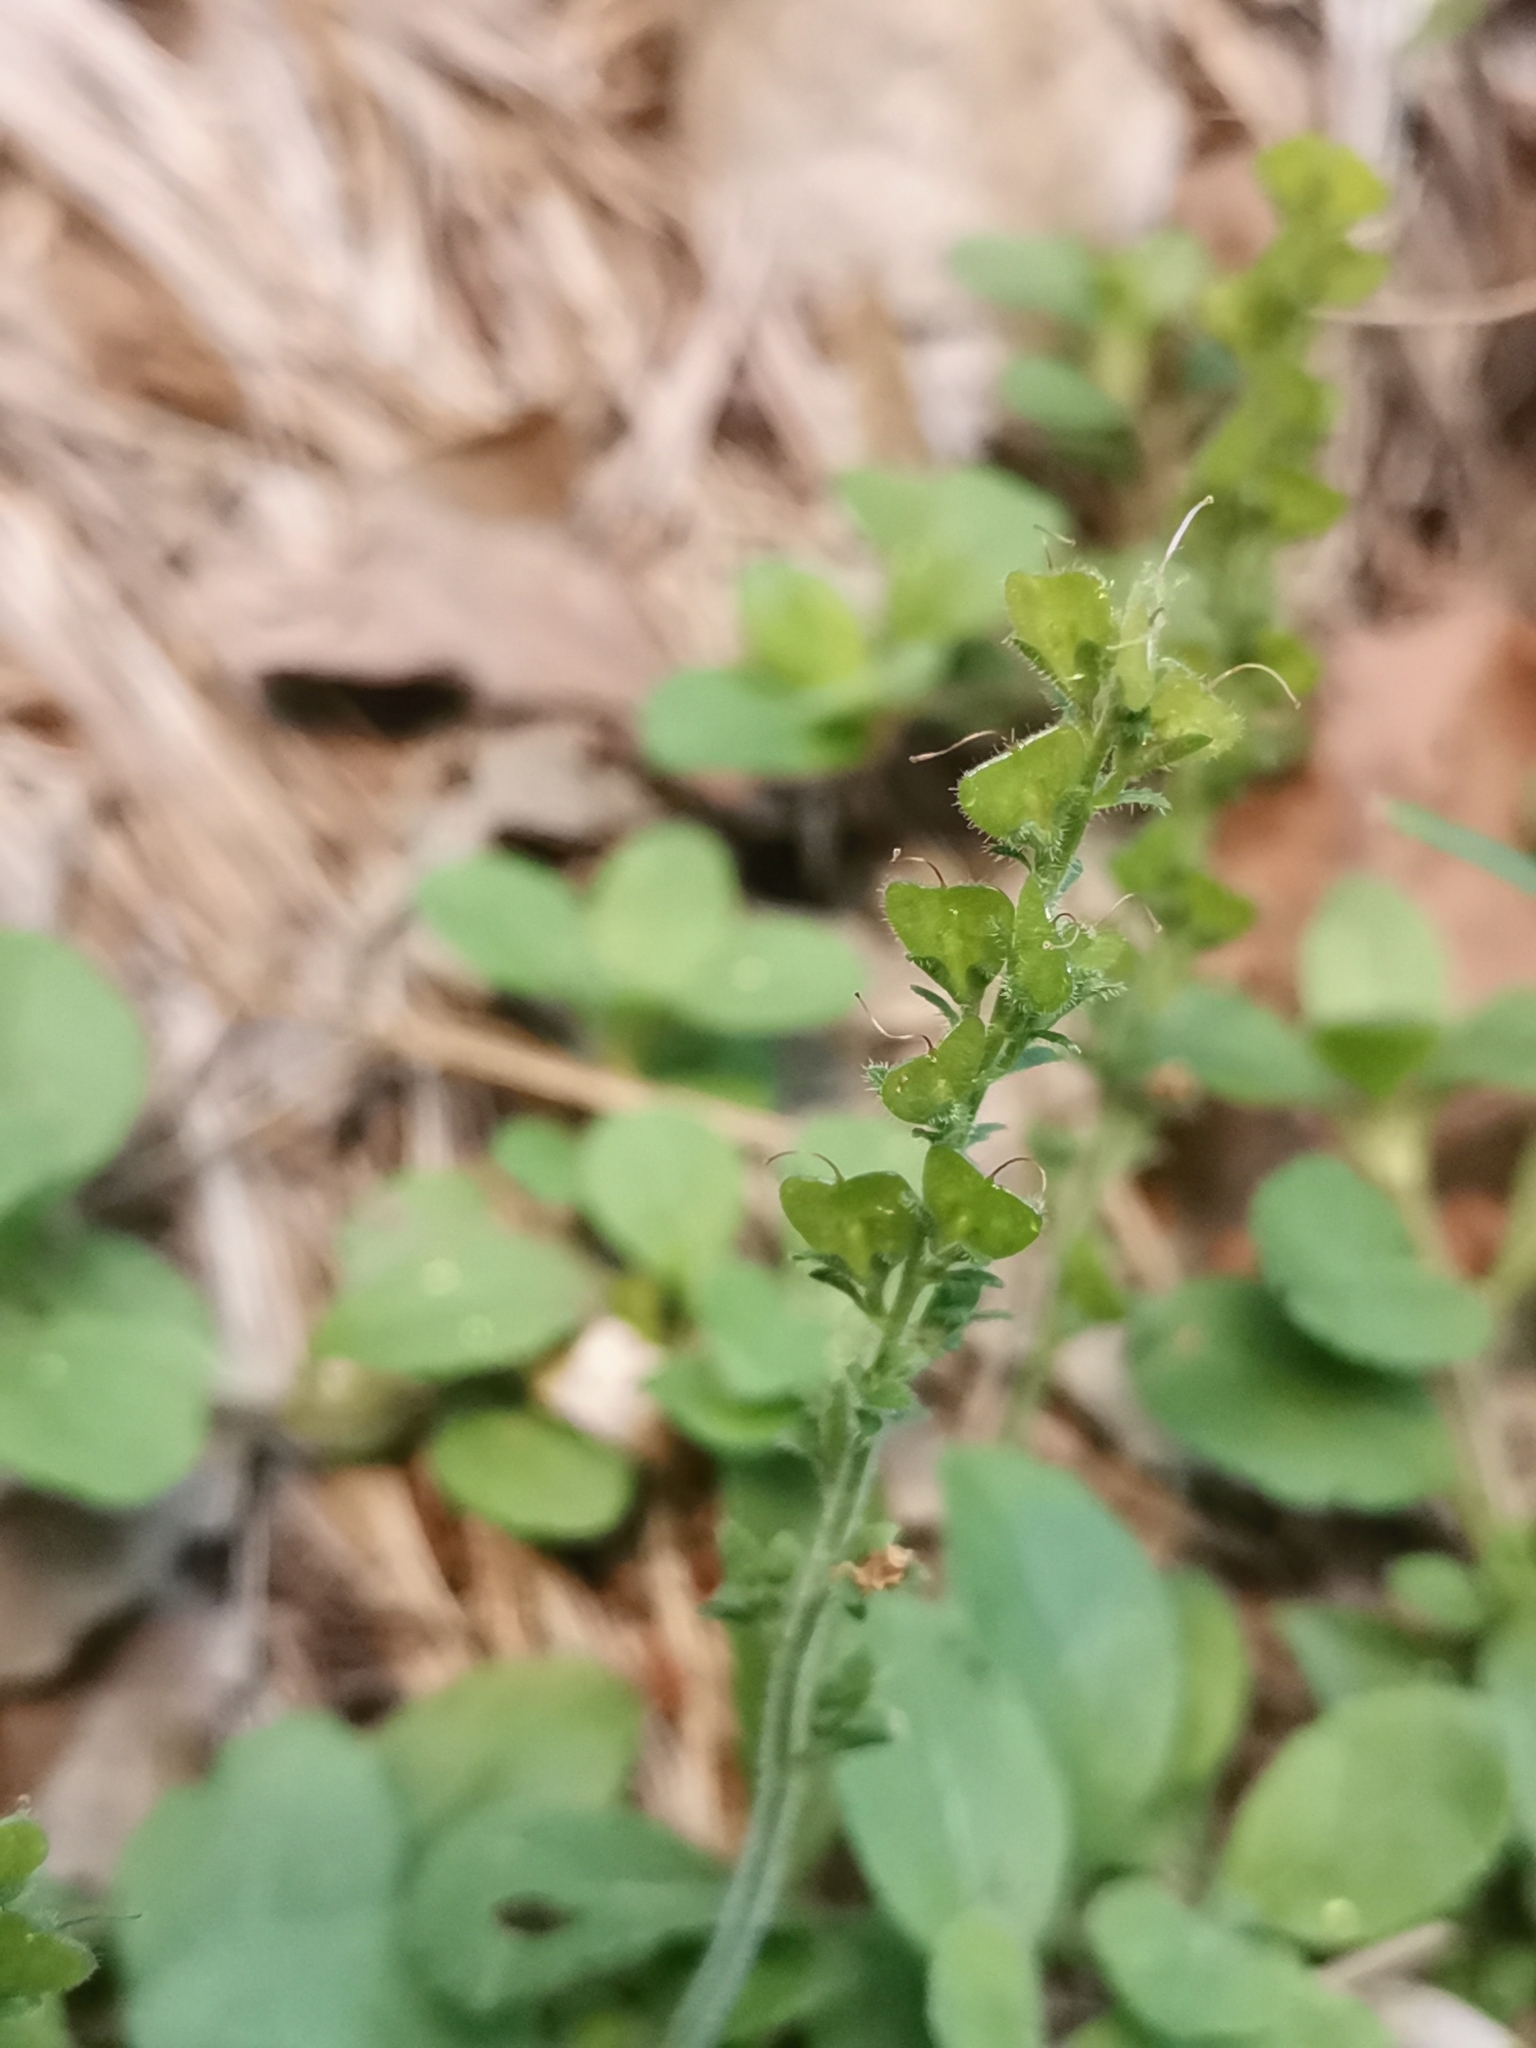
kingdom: Plantae
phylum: Tracheophyta
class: Magnoliopsida
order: Lamiales
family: Plantaginaceae
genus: Veronica
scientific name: Veronica officinalis
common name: Common speedwell
